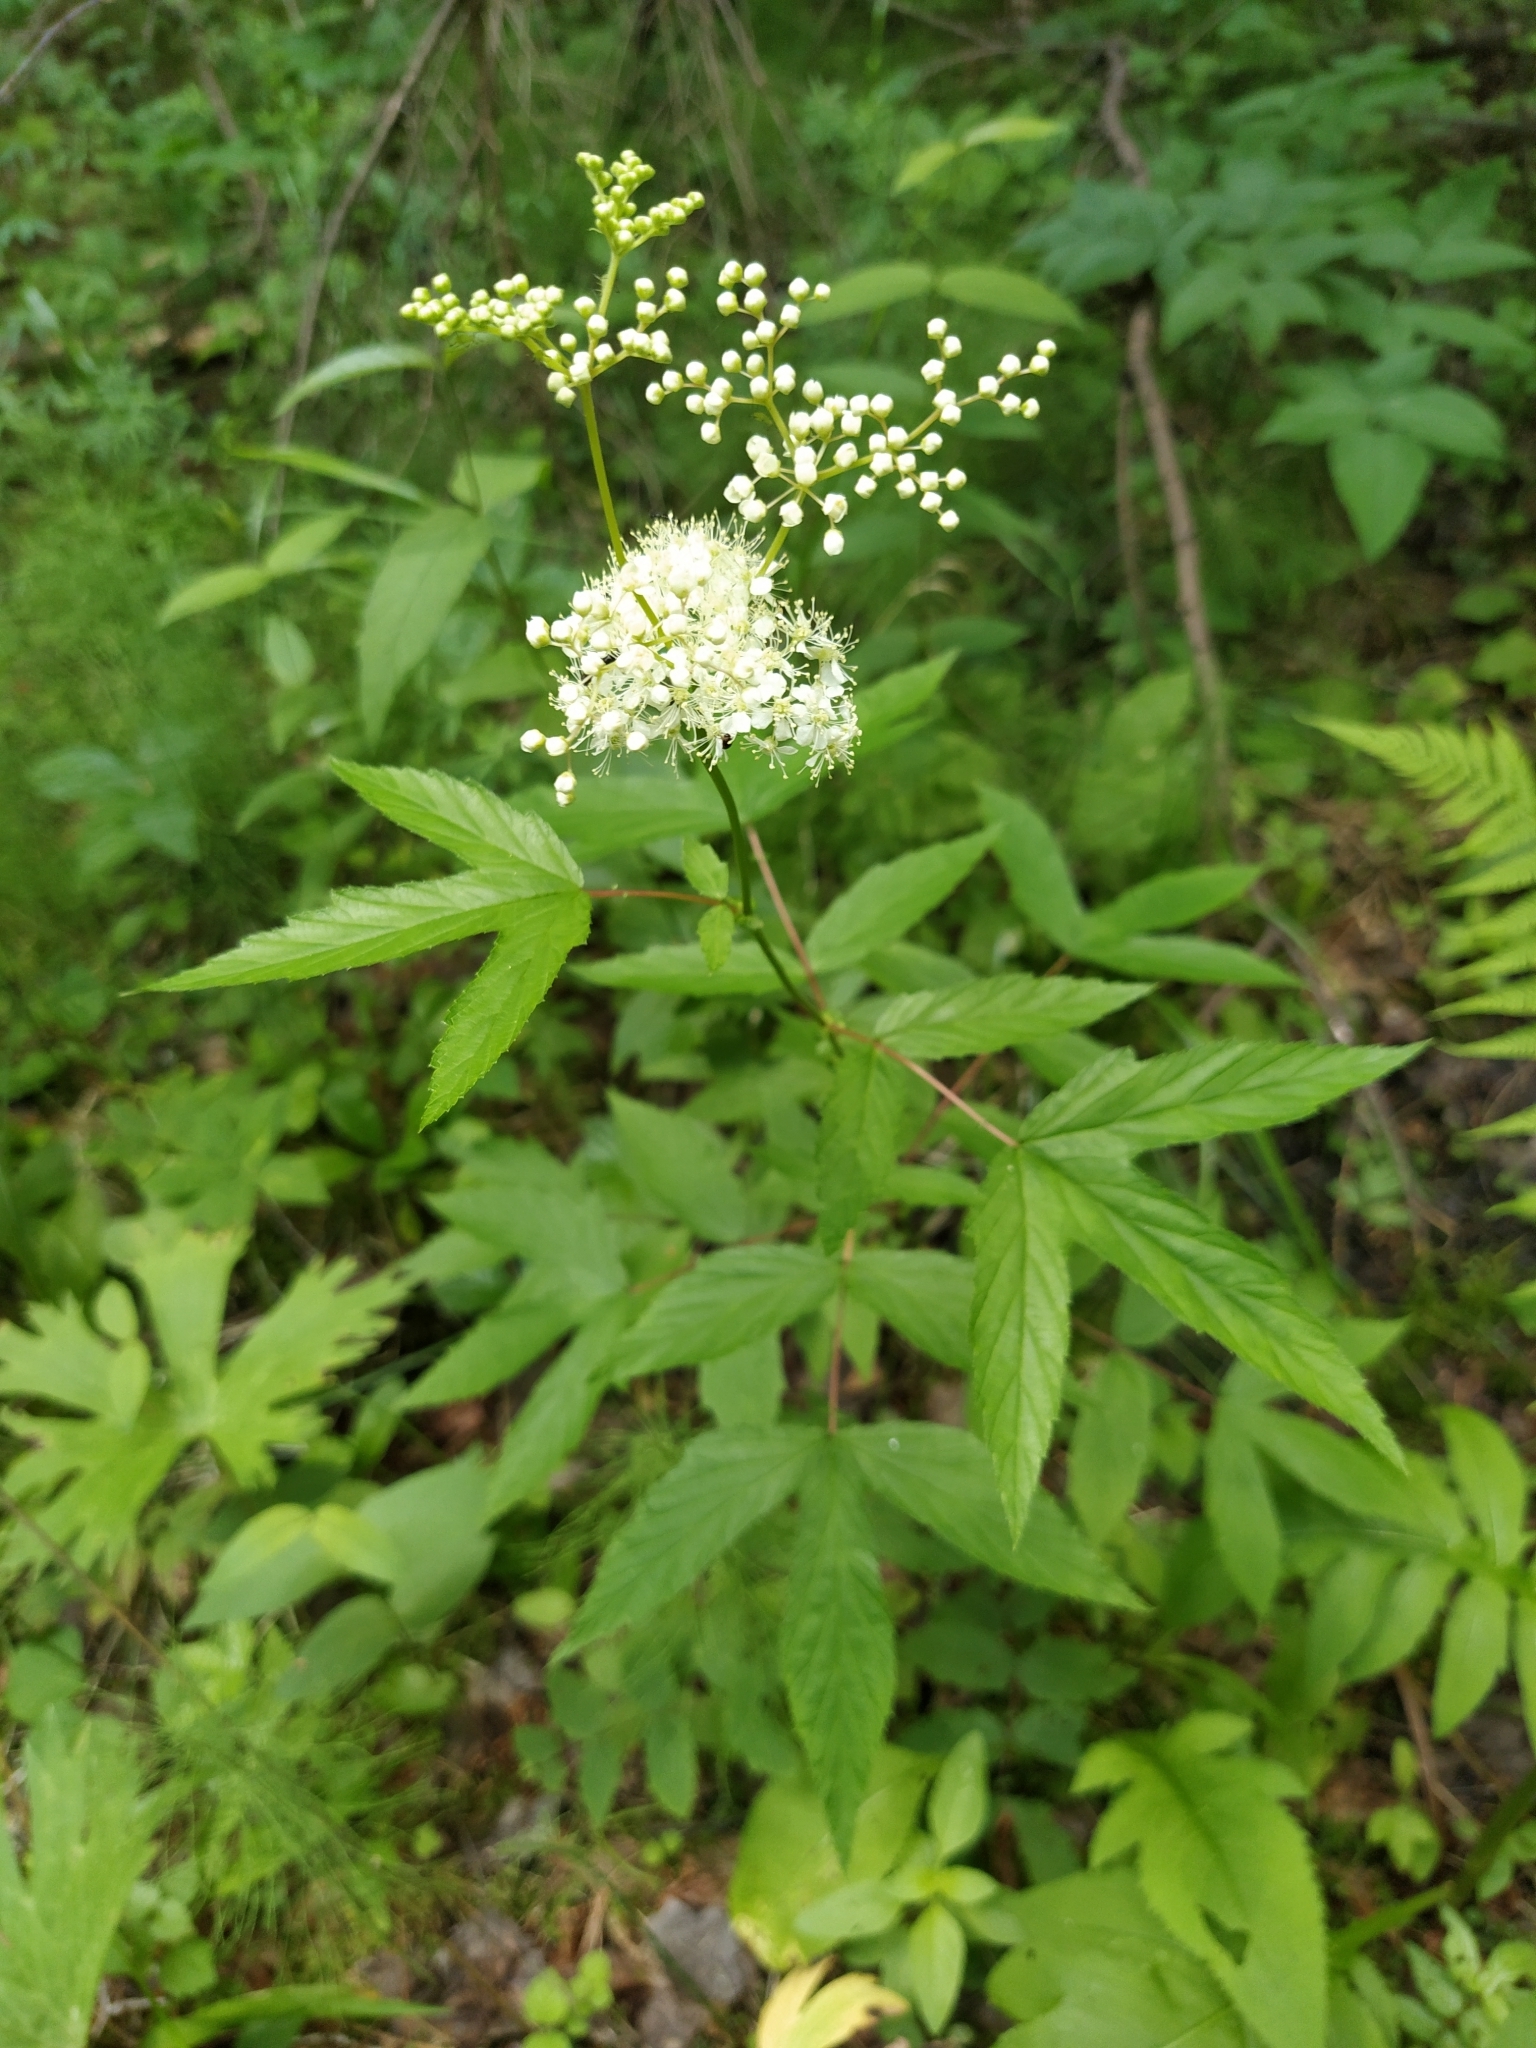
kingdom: Plantae
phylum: Tracheophyta
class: Magnoliopsida
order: Rosales
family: Rosaceae
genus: Filipendula
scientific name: Filipendula ulmaria
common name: Meadowsweet
